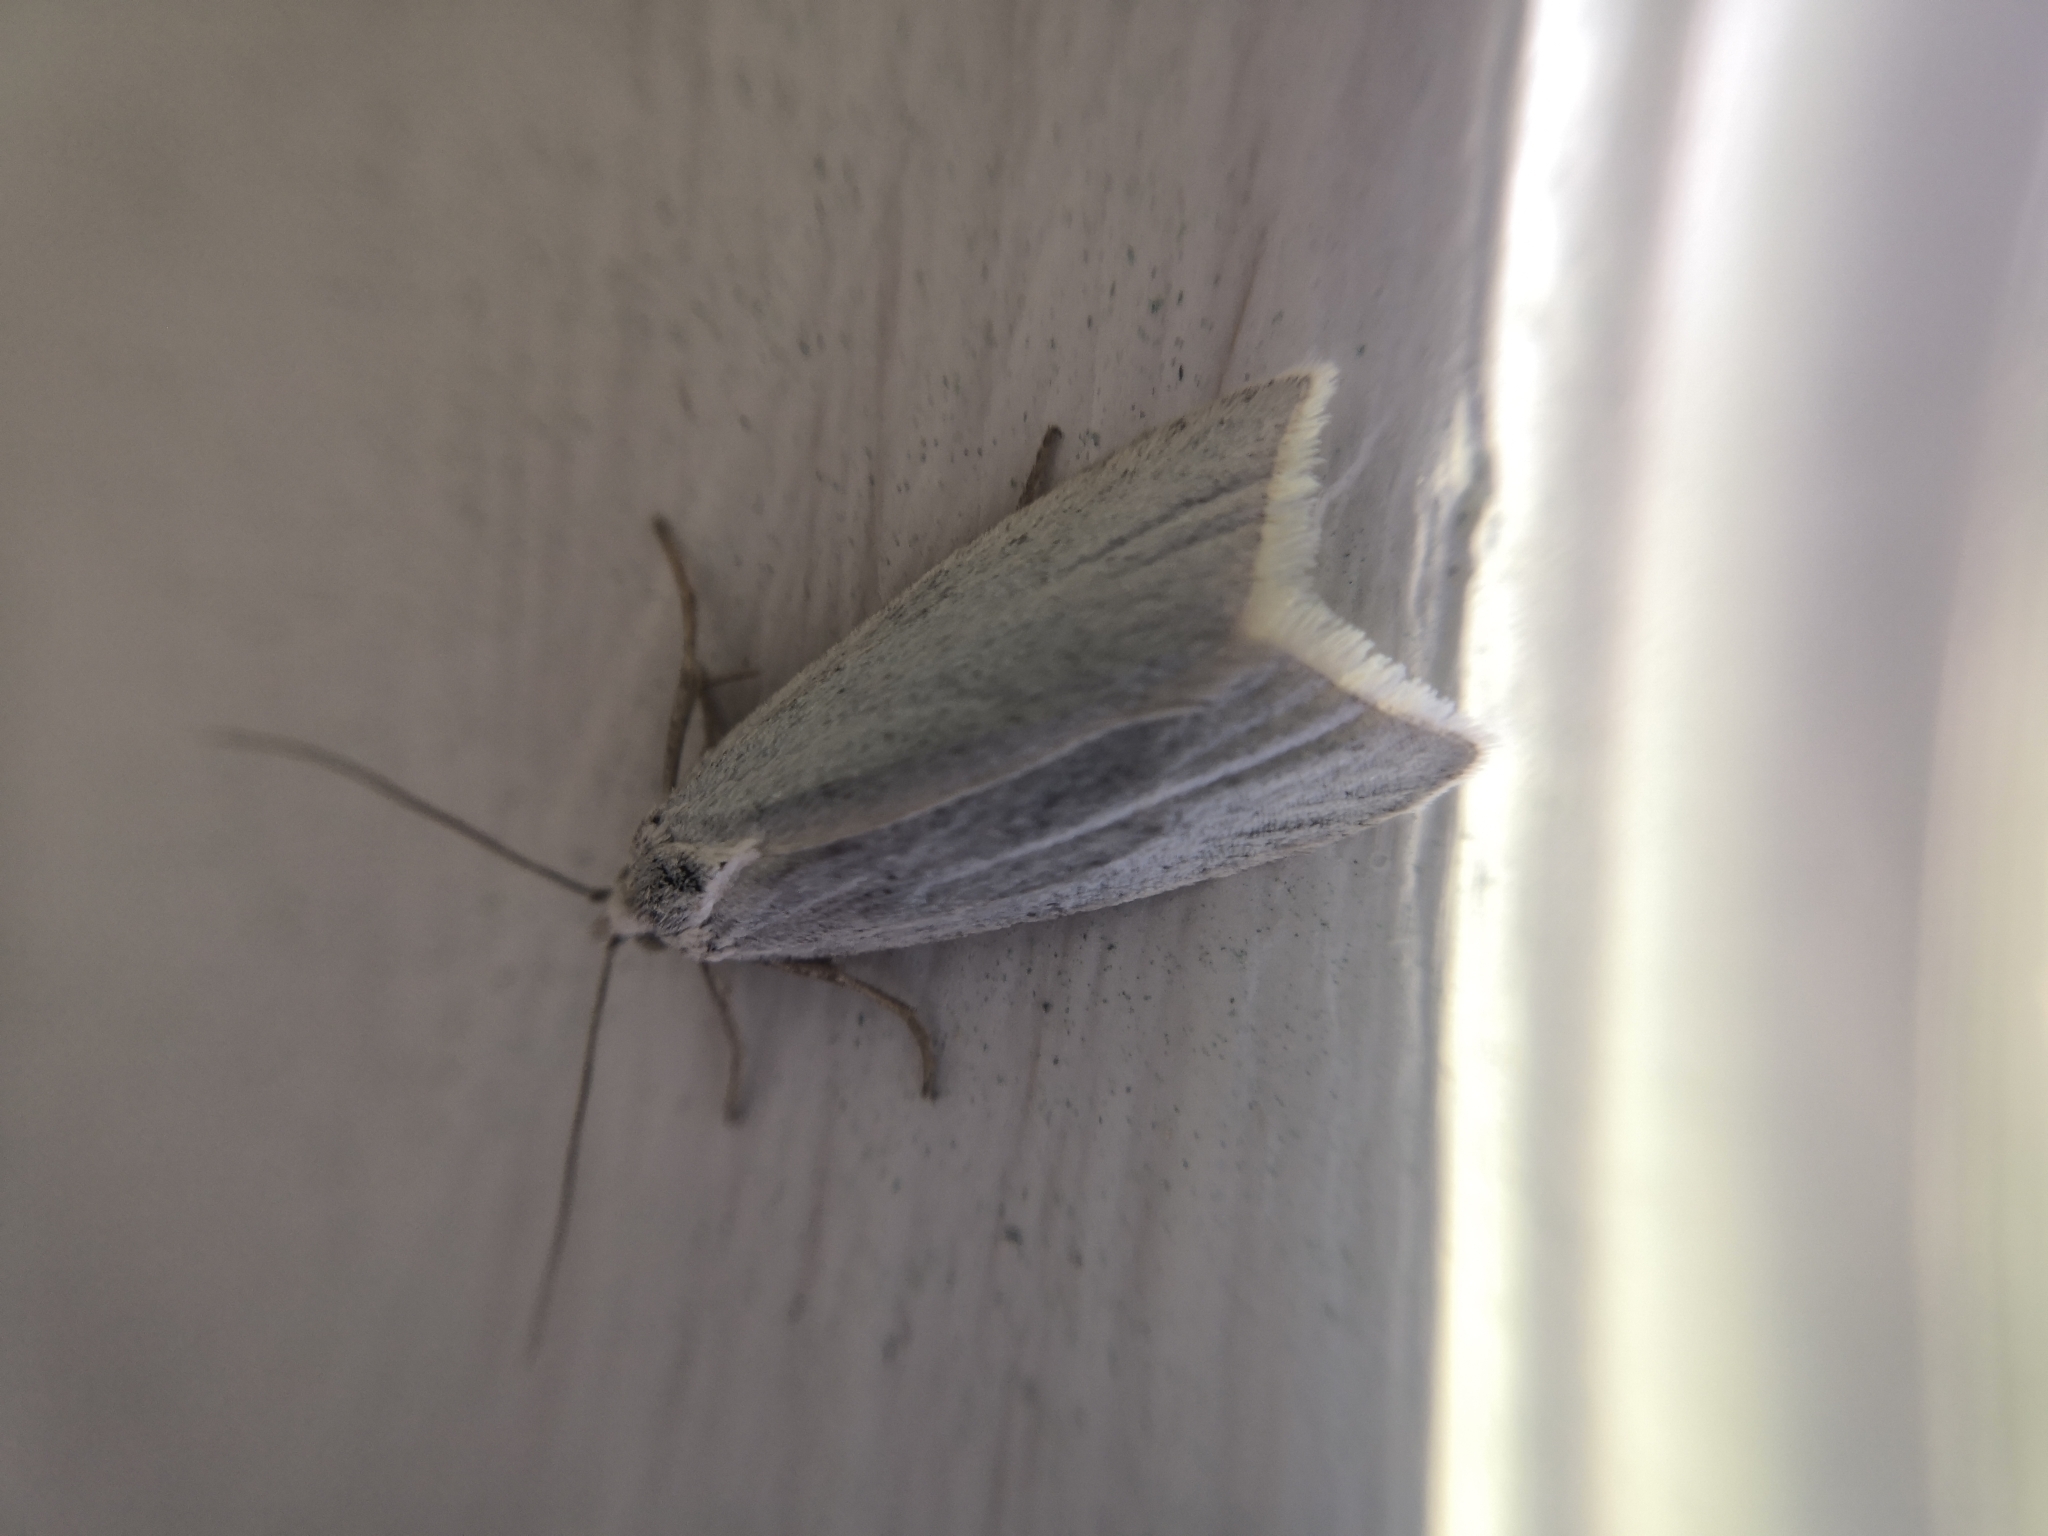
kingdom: Animalia
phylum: Arthropoda
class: Insecta
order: Lepidoptera
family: Tortricidae
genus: Eana
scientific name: Eana argentana
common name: Silver shade
